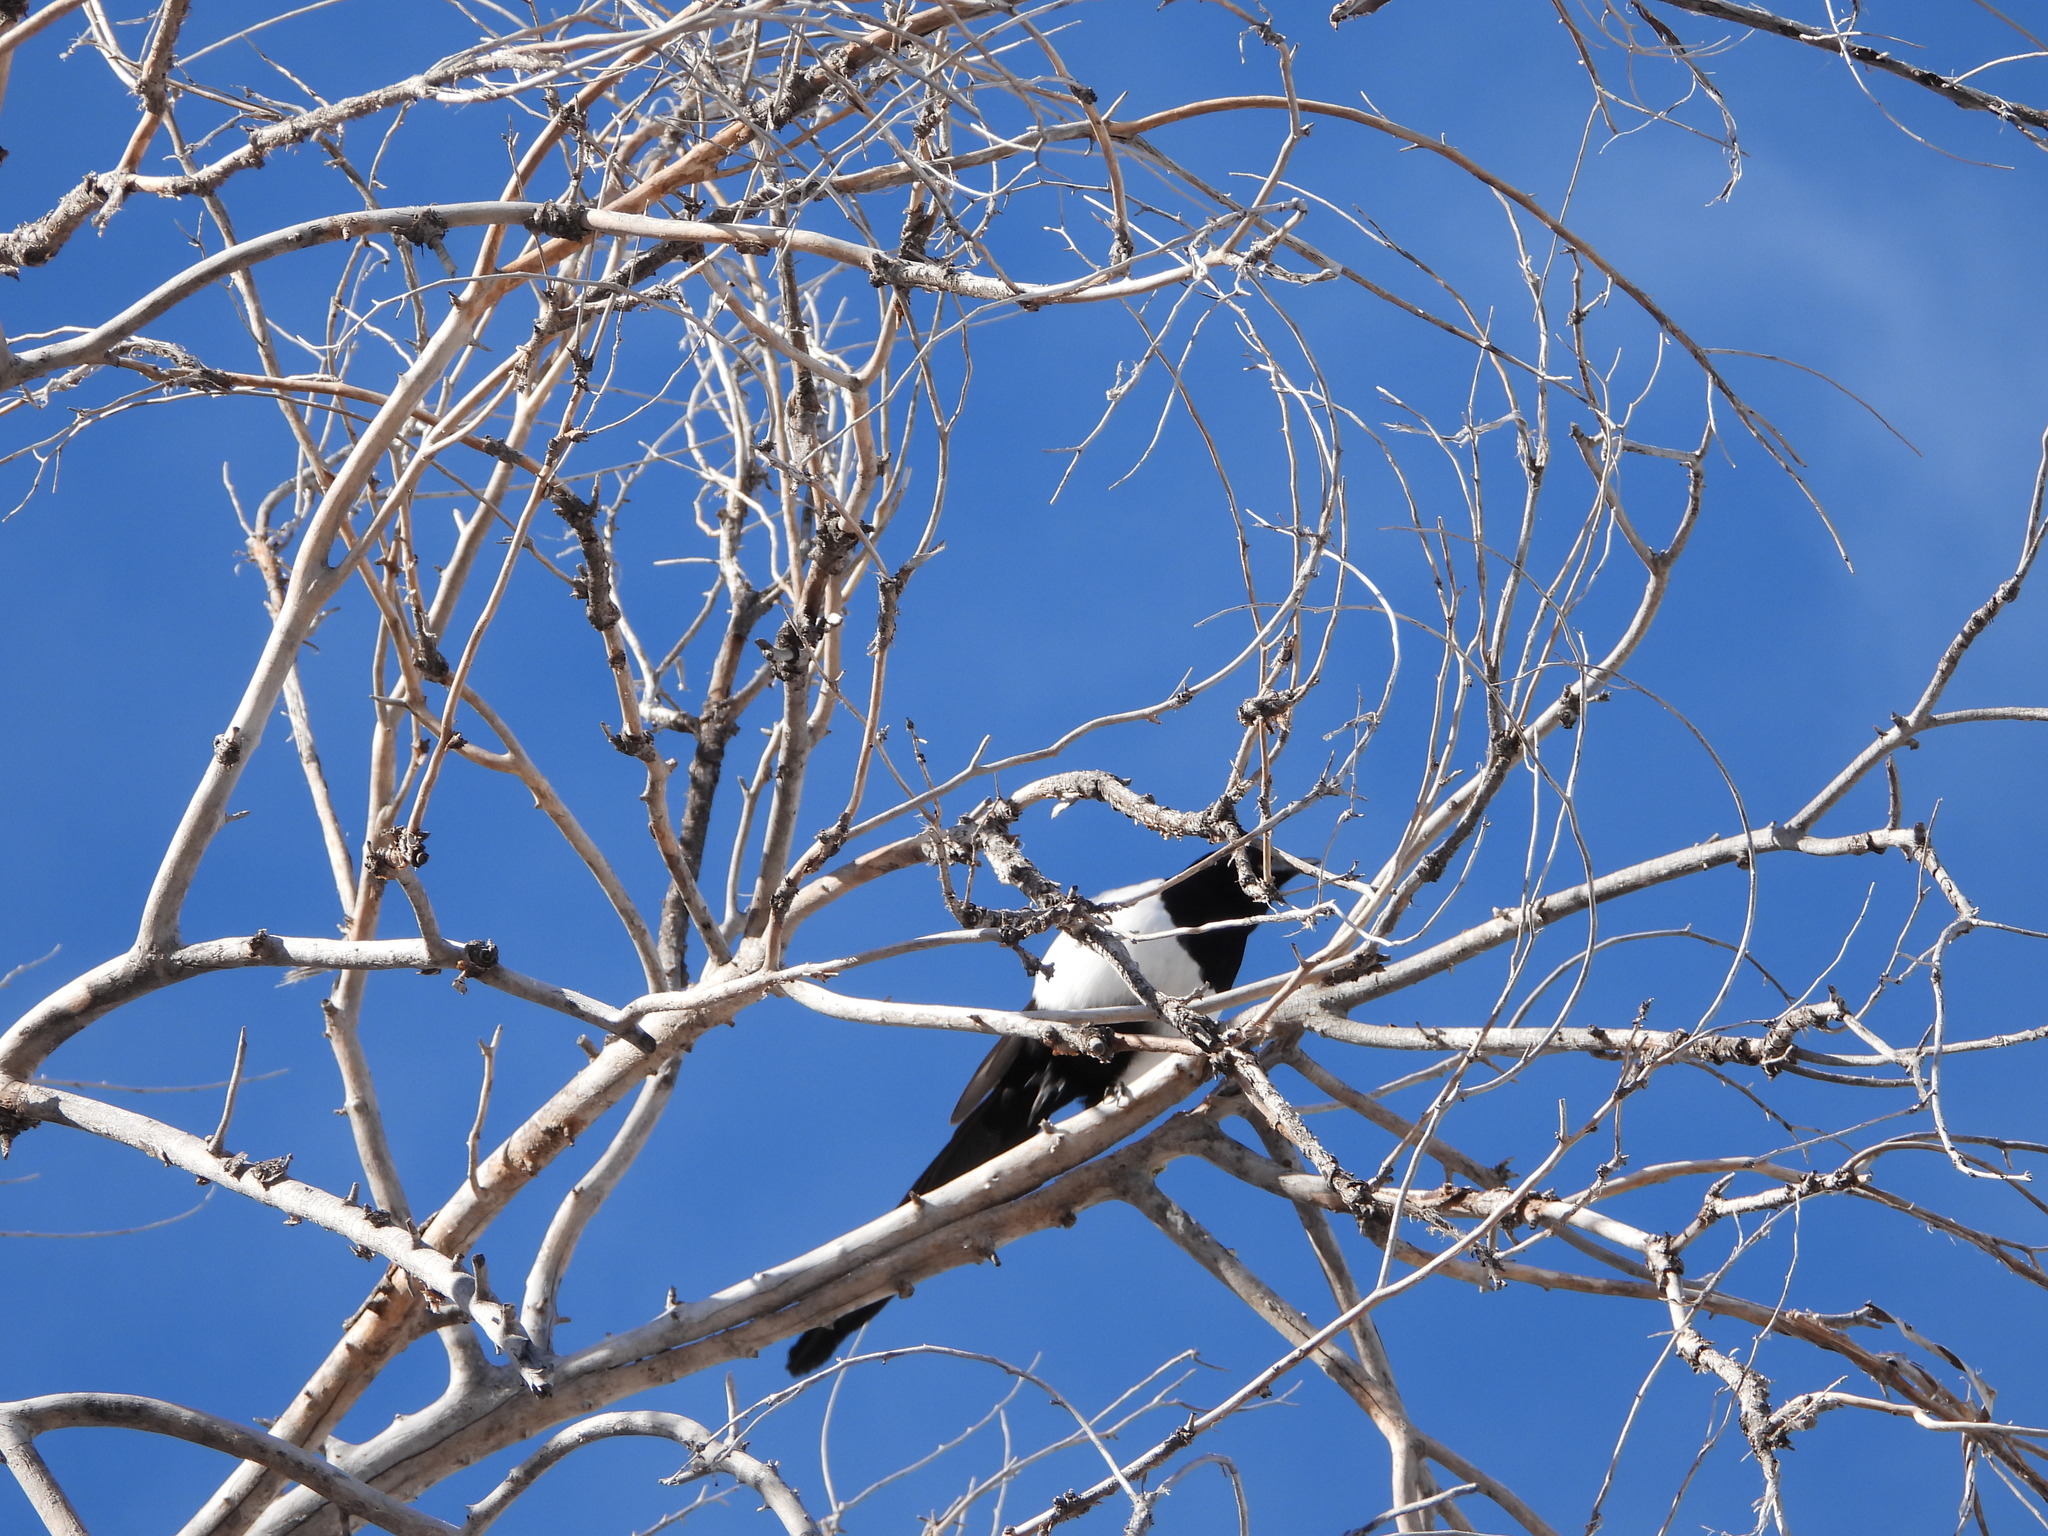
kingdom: Animalia
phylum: Chordata
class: Aves
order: Passeriformes
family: Corvidae
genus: Pica
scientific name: Pica hudsonia
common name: Black-billed magpie
